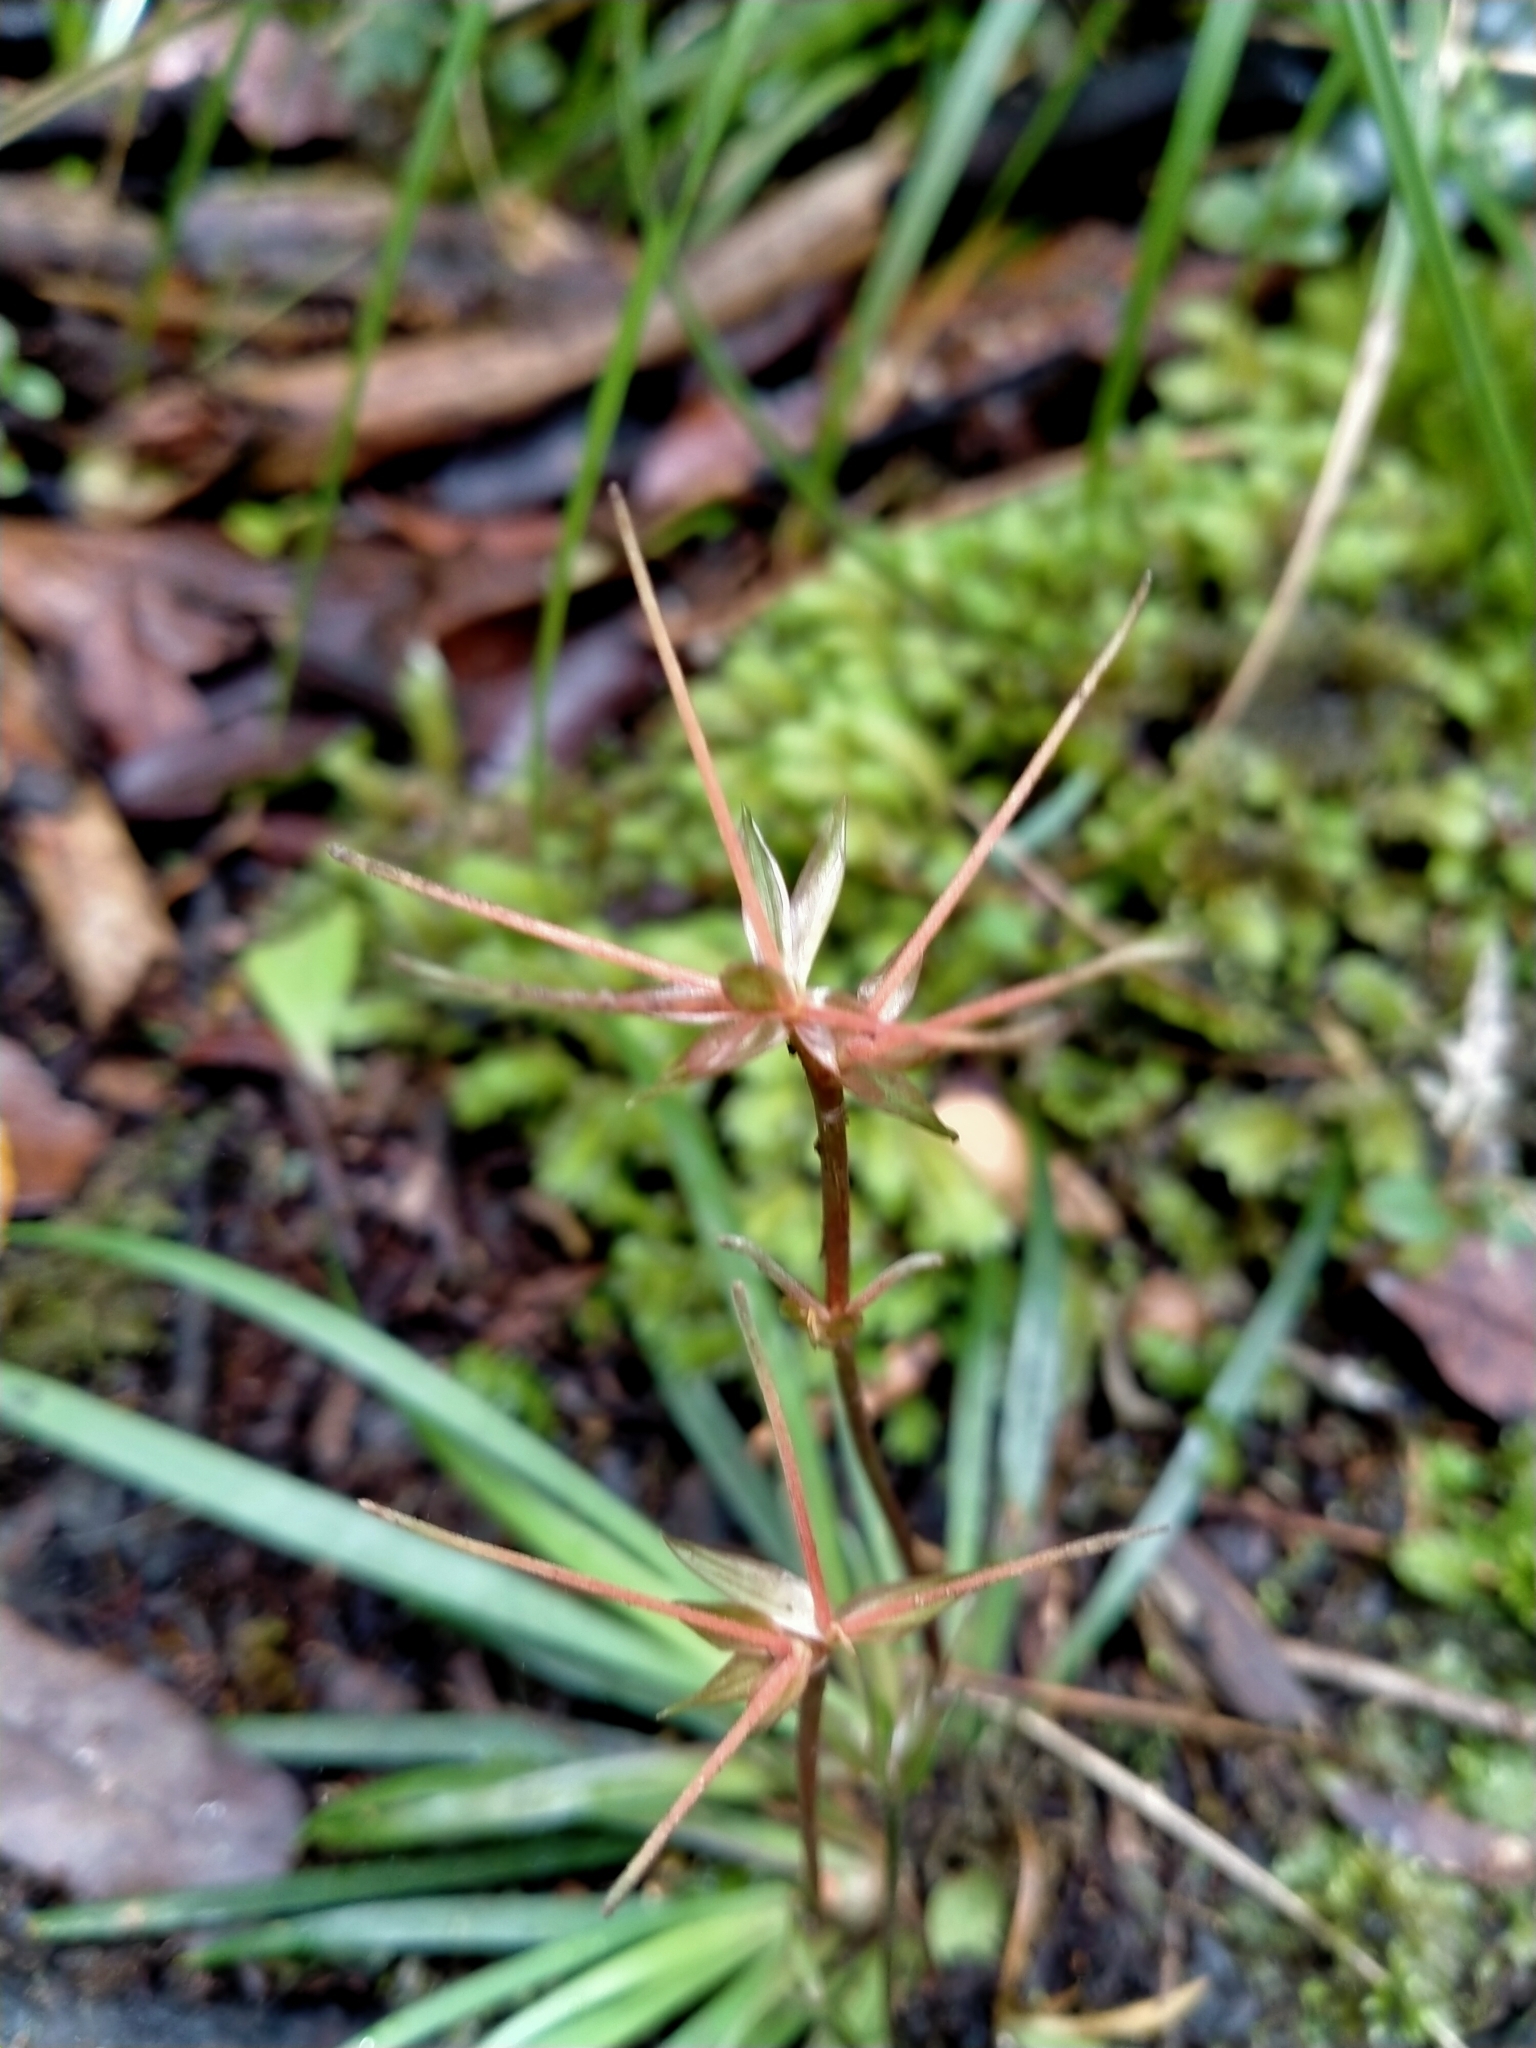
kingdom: Plantae
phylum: Tracheophyta
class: Liliopsida
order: Asparagales
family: Iridaceae
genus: Libertia
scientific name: Libertia micrantha
